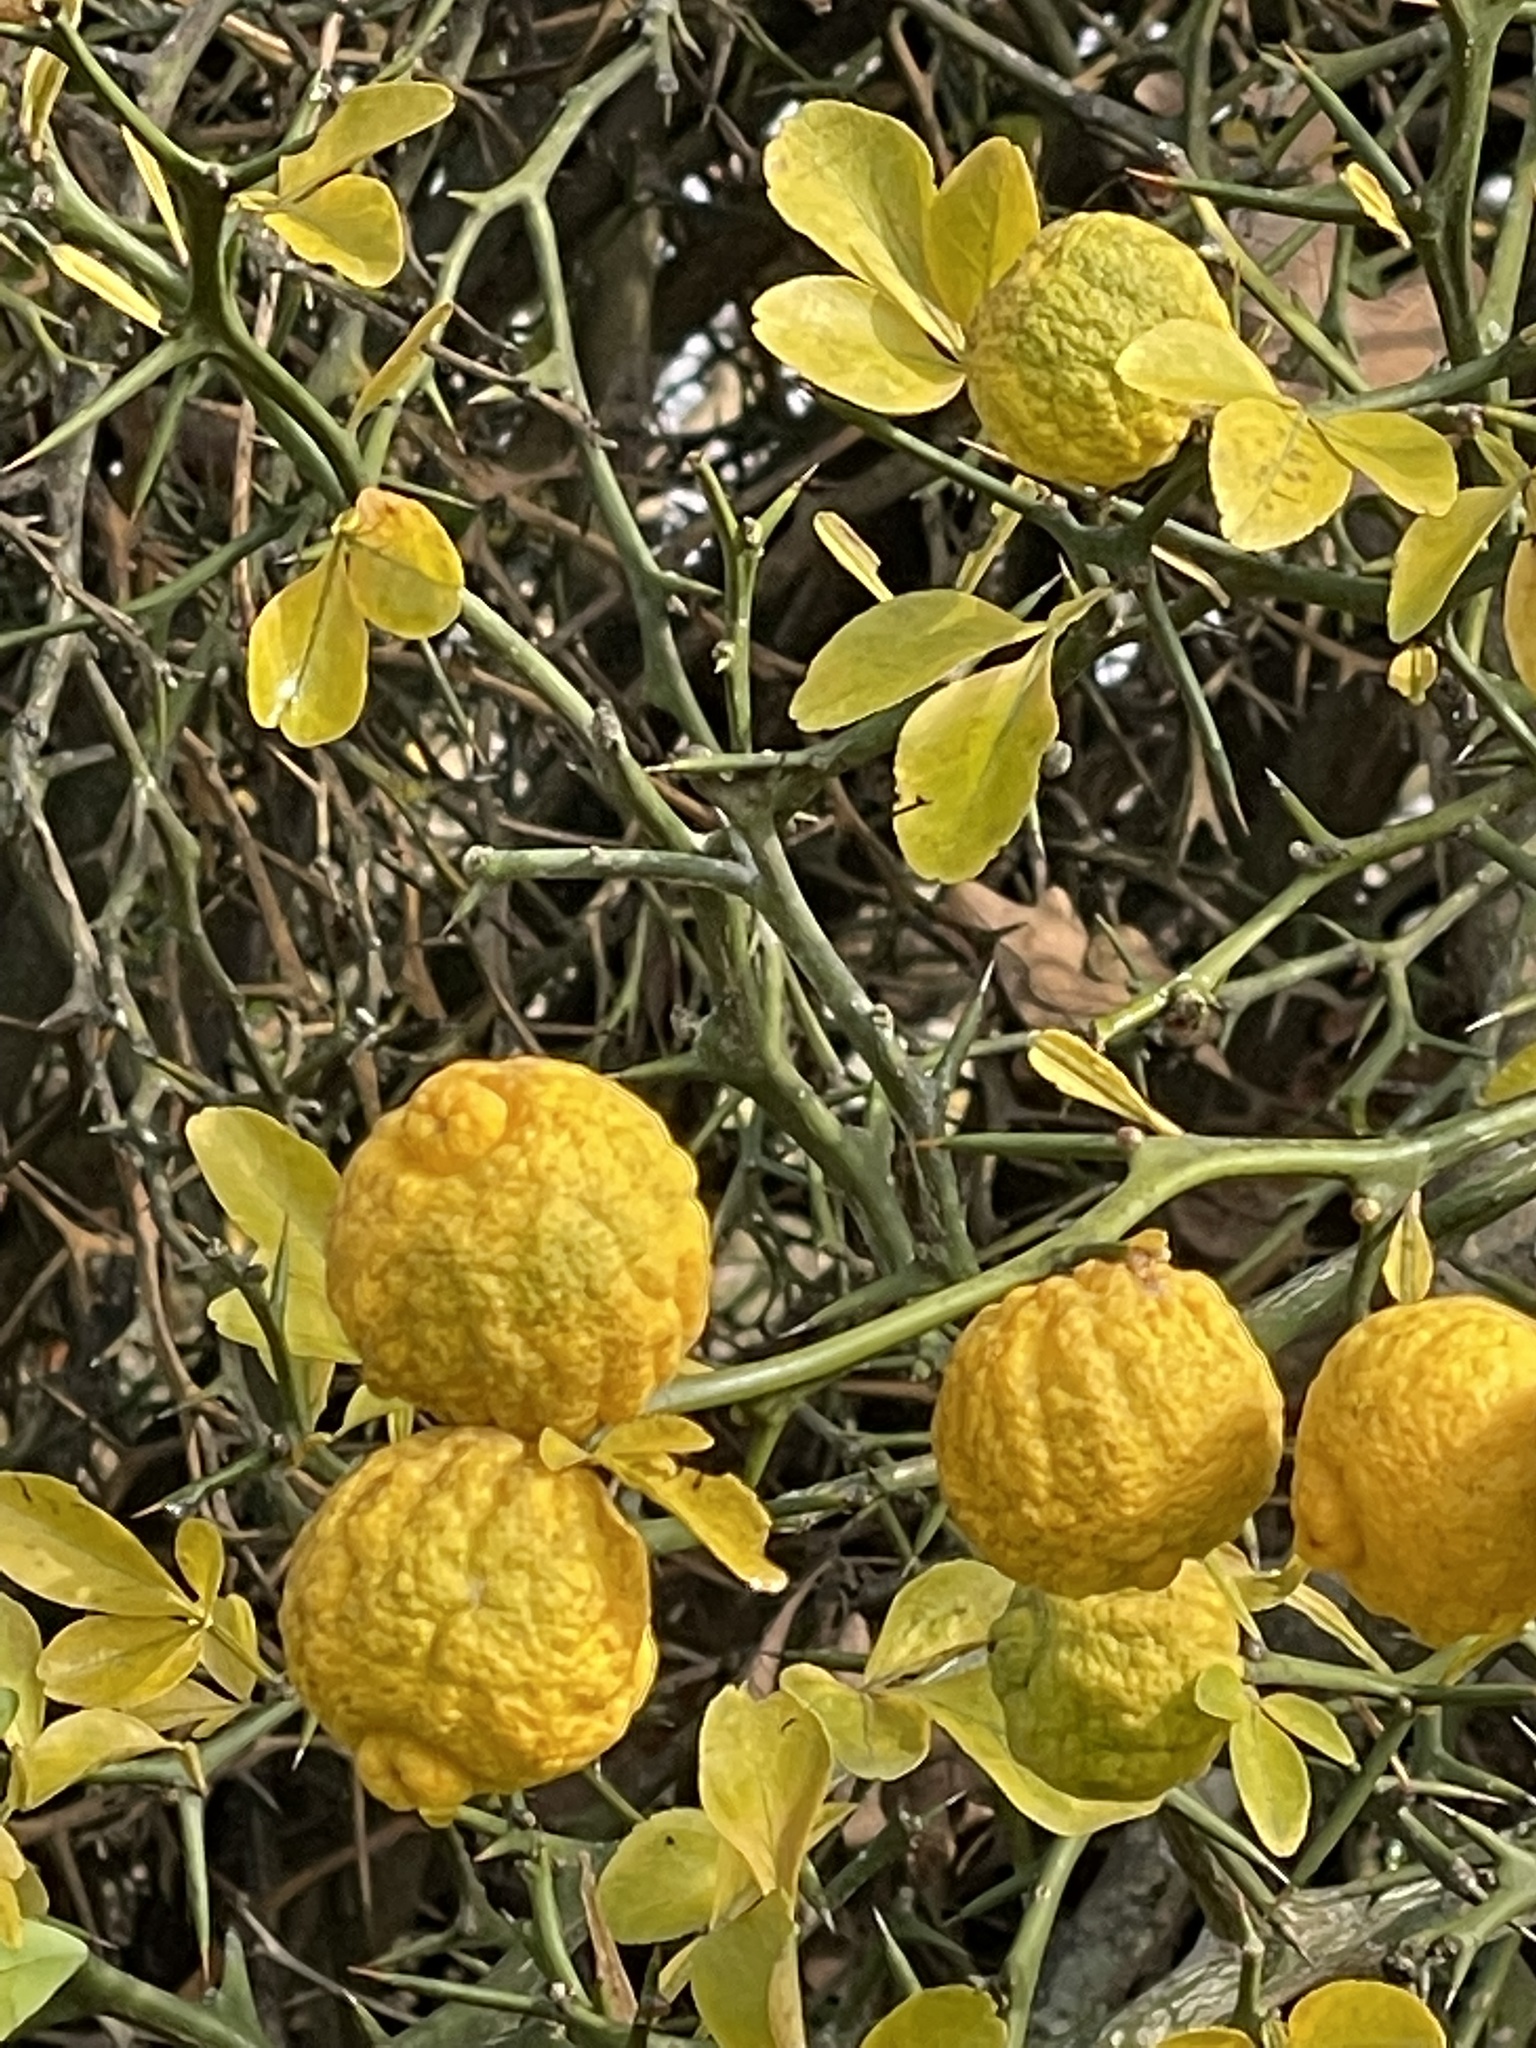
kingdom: Plantae
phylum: Tracheophyta
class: Magnoliopsida
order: Sapindales
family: Rutaceae
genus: Citrus
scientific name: Citrus trifoliata
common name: Japanese bitter-orange
